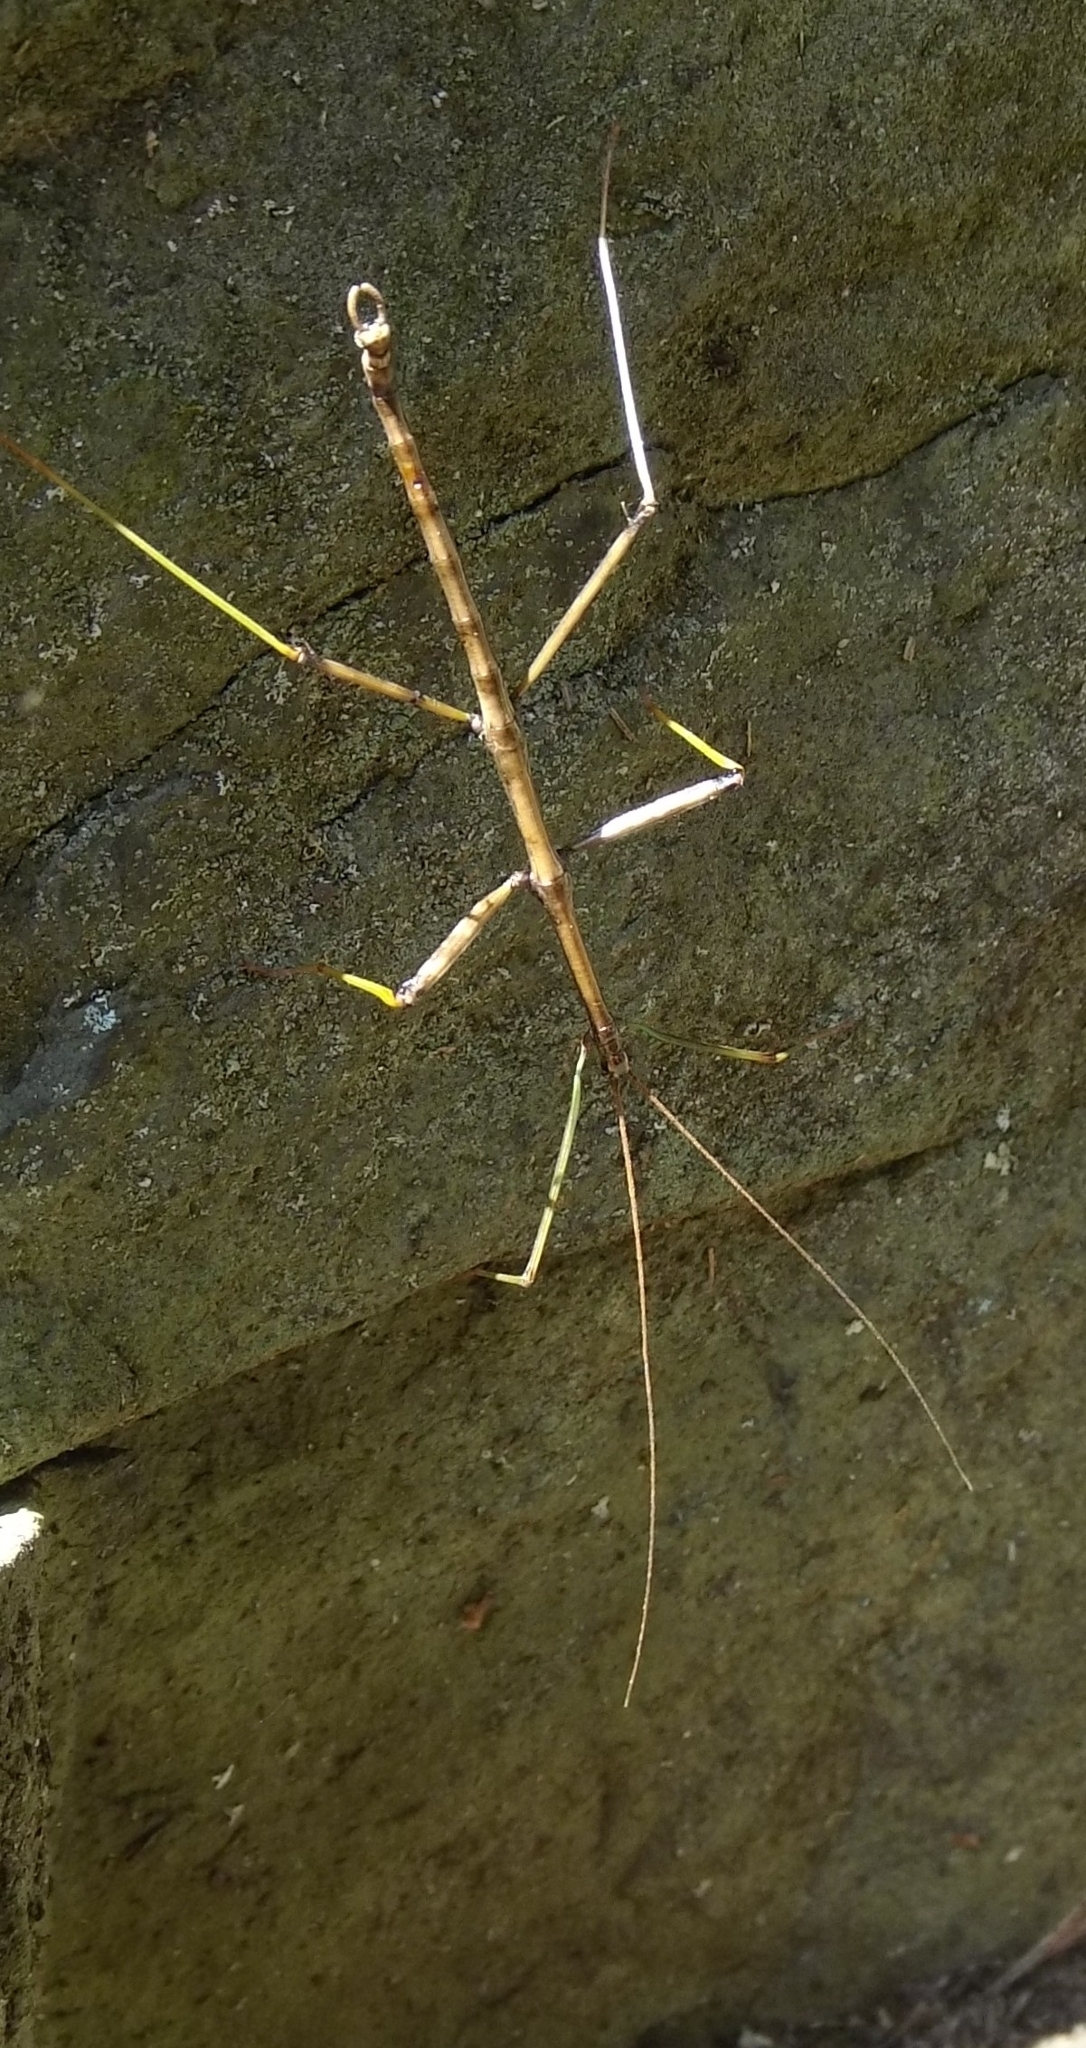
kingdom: Animalia
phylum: Arthropoda
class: Insecta
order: Phasmida
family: Diapheromeridae
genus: Diapheromera
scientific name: Diapheromera femorata
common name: Common american walkingstick
